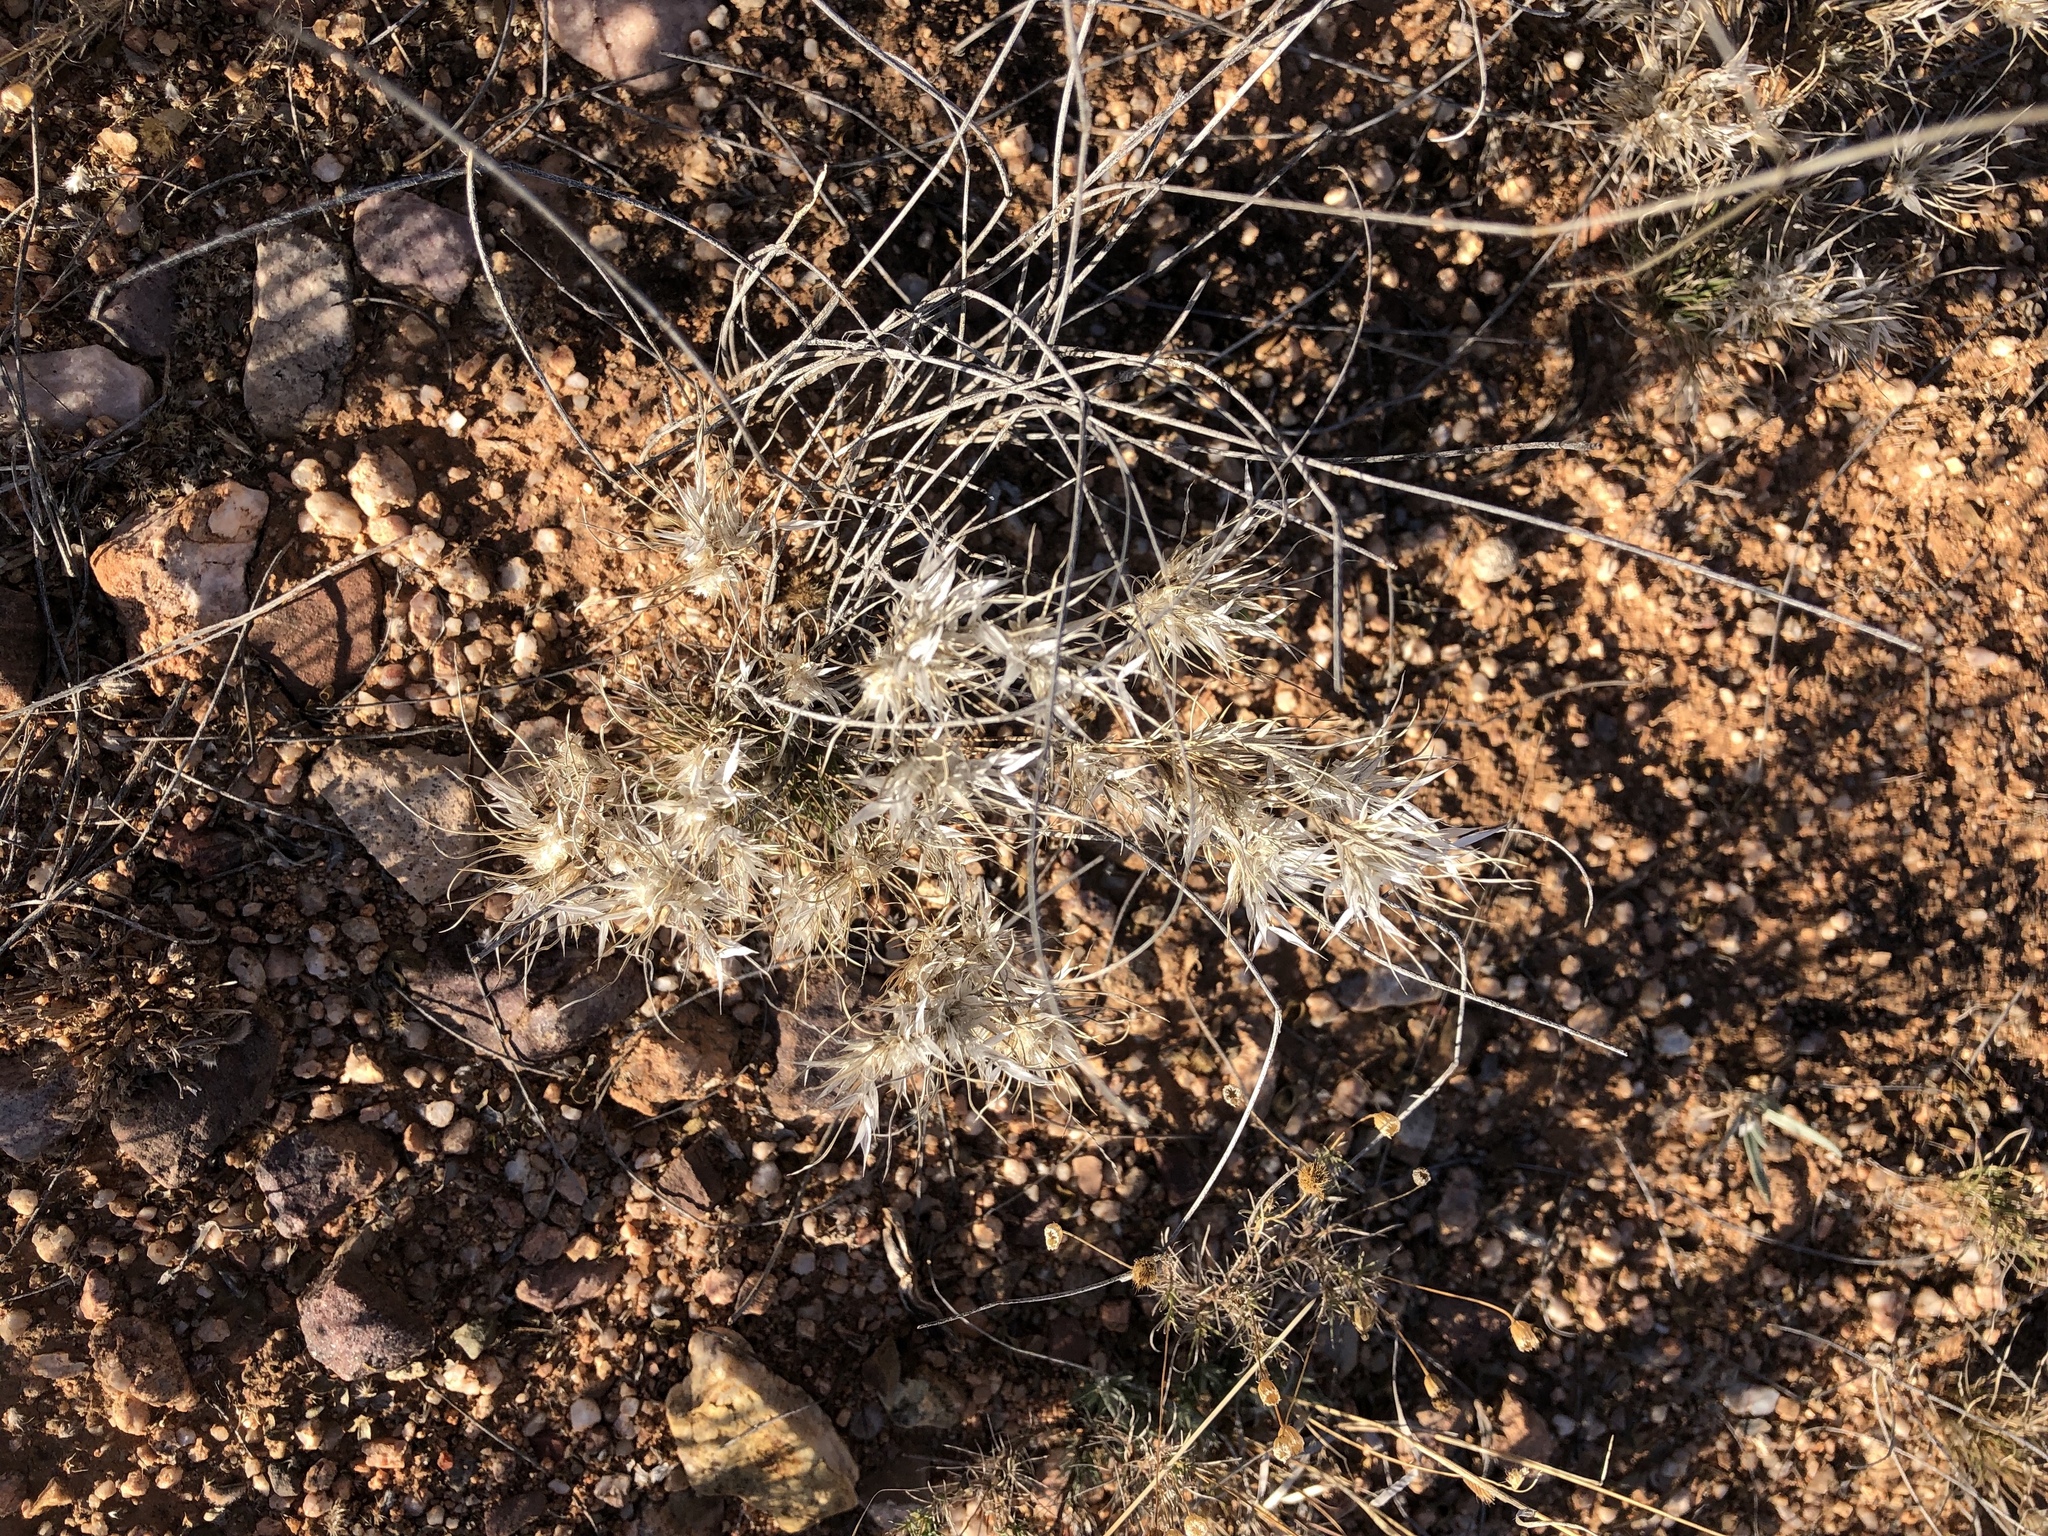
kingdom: Plantae
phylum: Tracheophyta
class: Liliopsida
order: Poales
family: Poaceae
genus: Dasyochloa
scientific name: Dasyochloa pulchella
